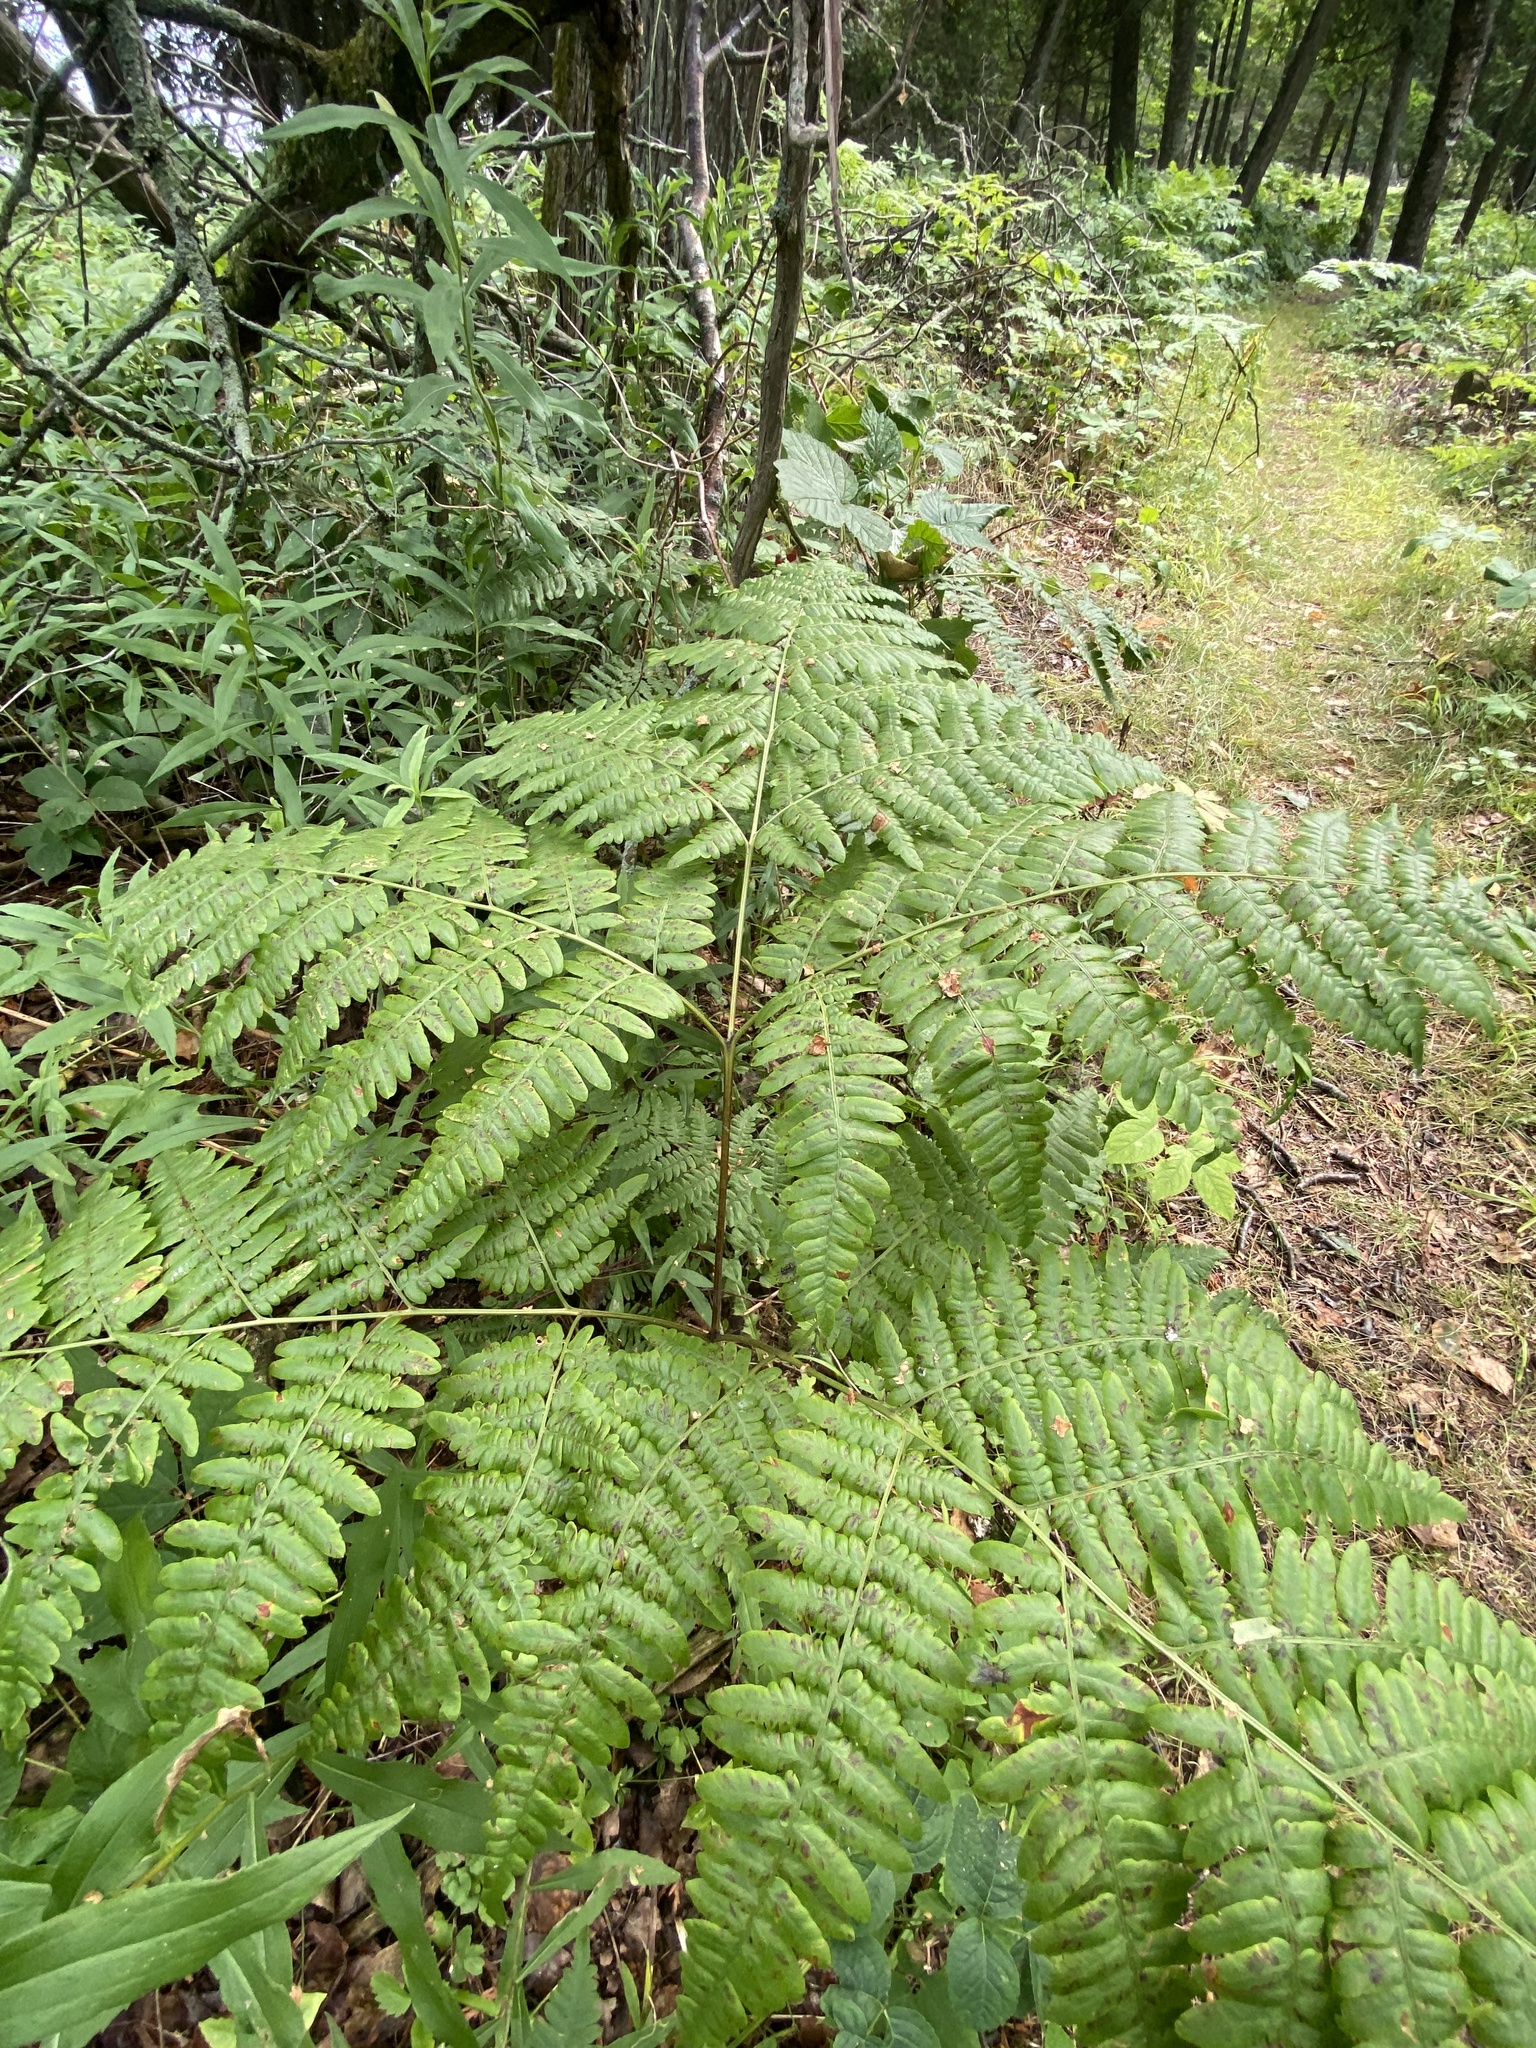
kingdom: Plantae
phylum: Tracheophyta
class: Polypodiopsida
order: Polypodiales
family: Dennstaedtiaceae
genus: Pteridium
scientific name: Pteridium aquilinum
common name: Bracken
